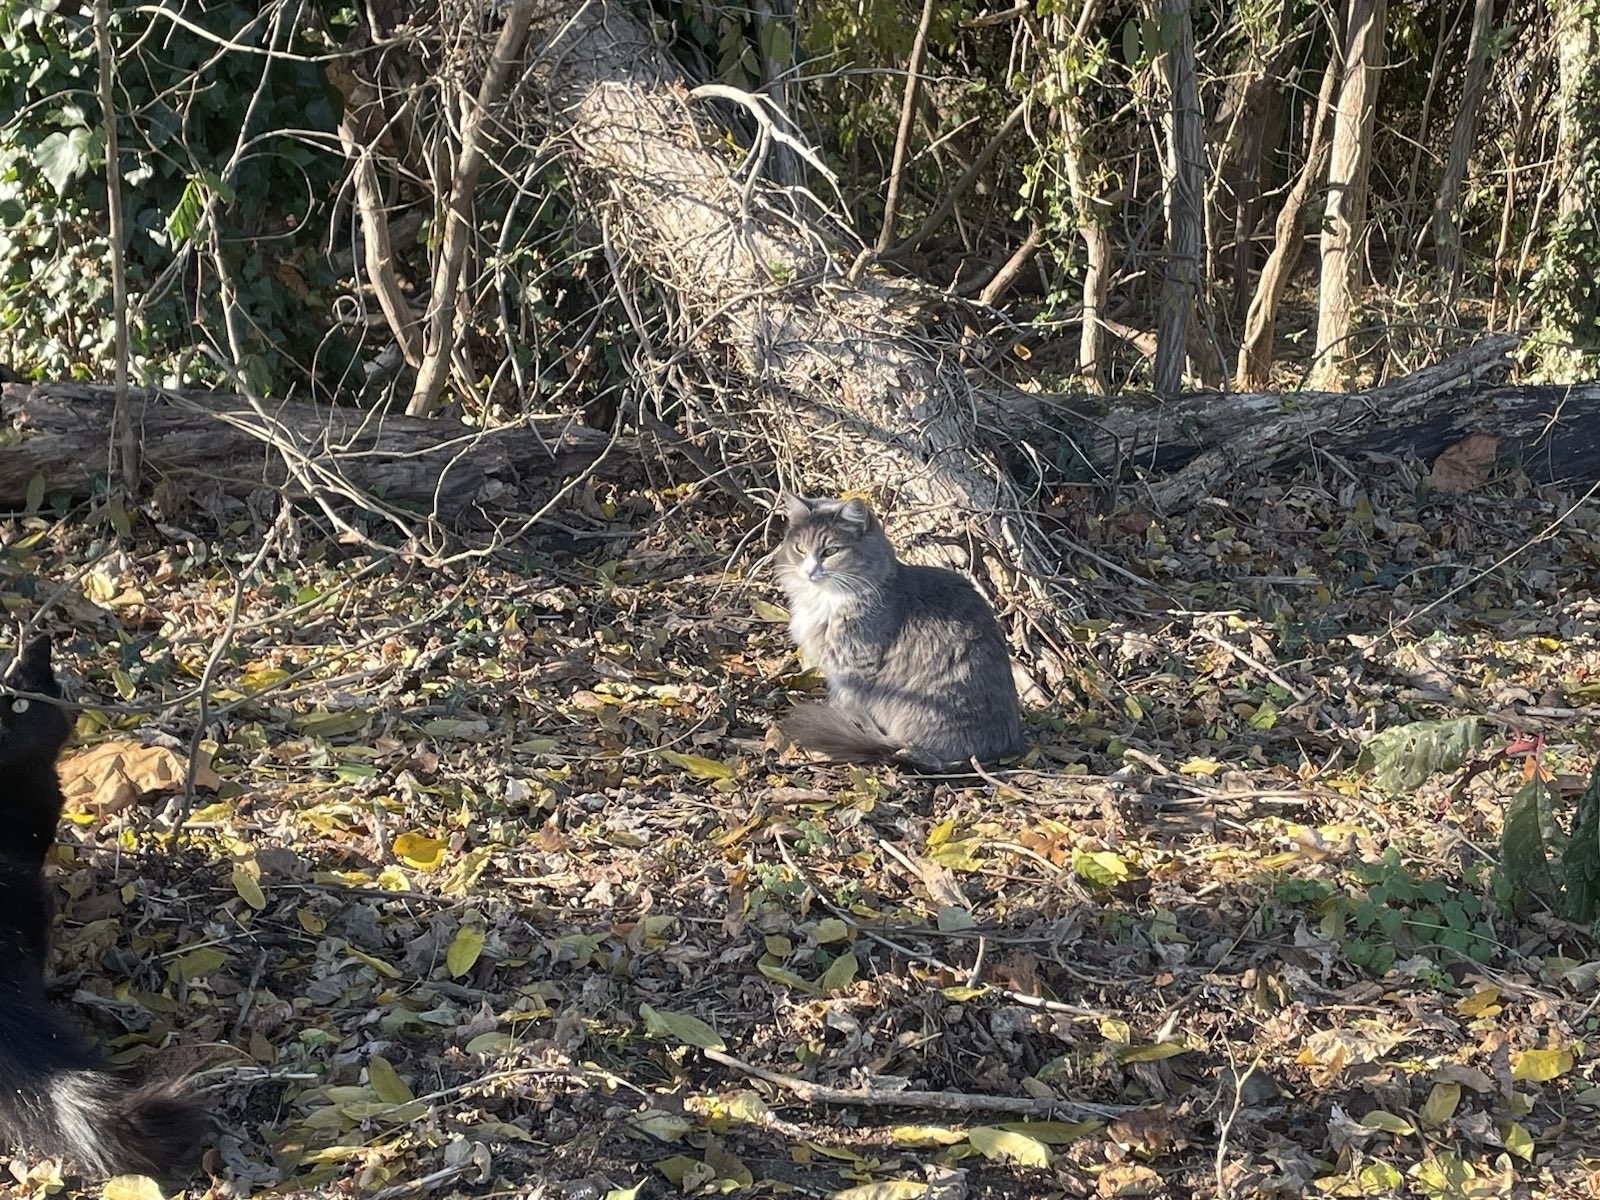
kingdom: Animalia
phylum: Chordata
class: Mammalia
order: Carnivora
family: Felidae
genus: Felis
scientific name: Felis catus
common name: Domestic cat
